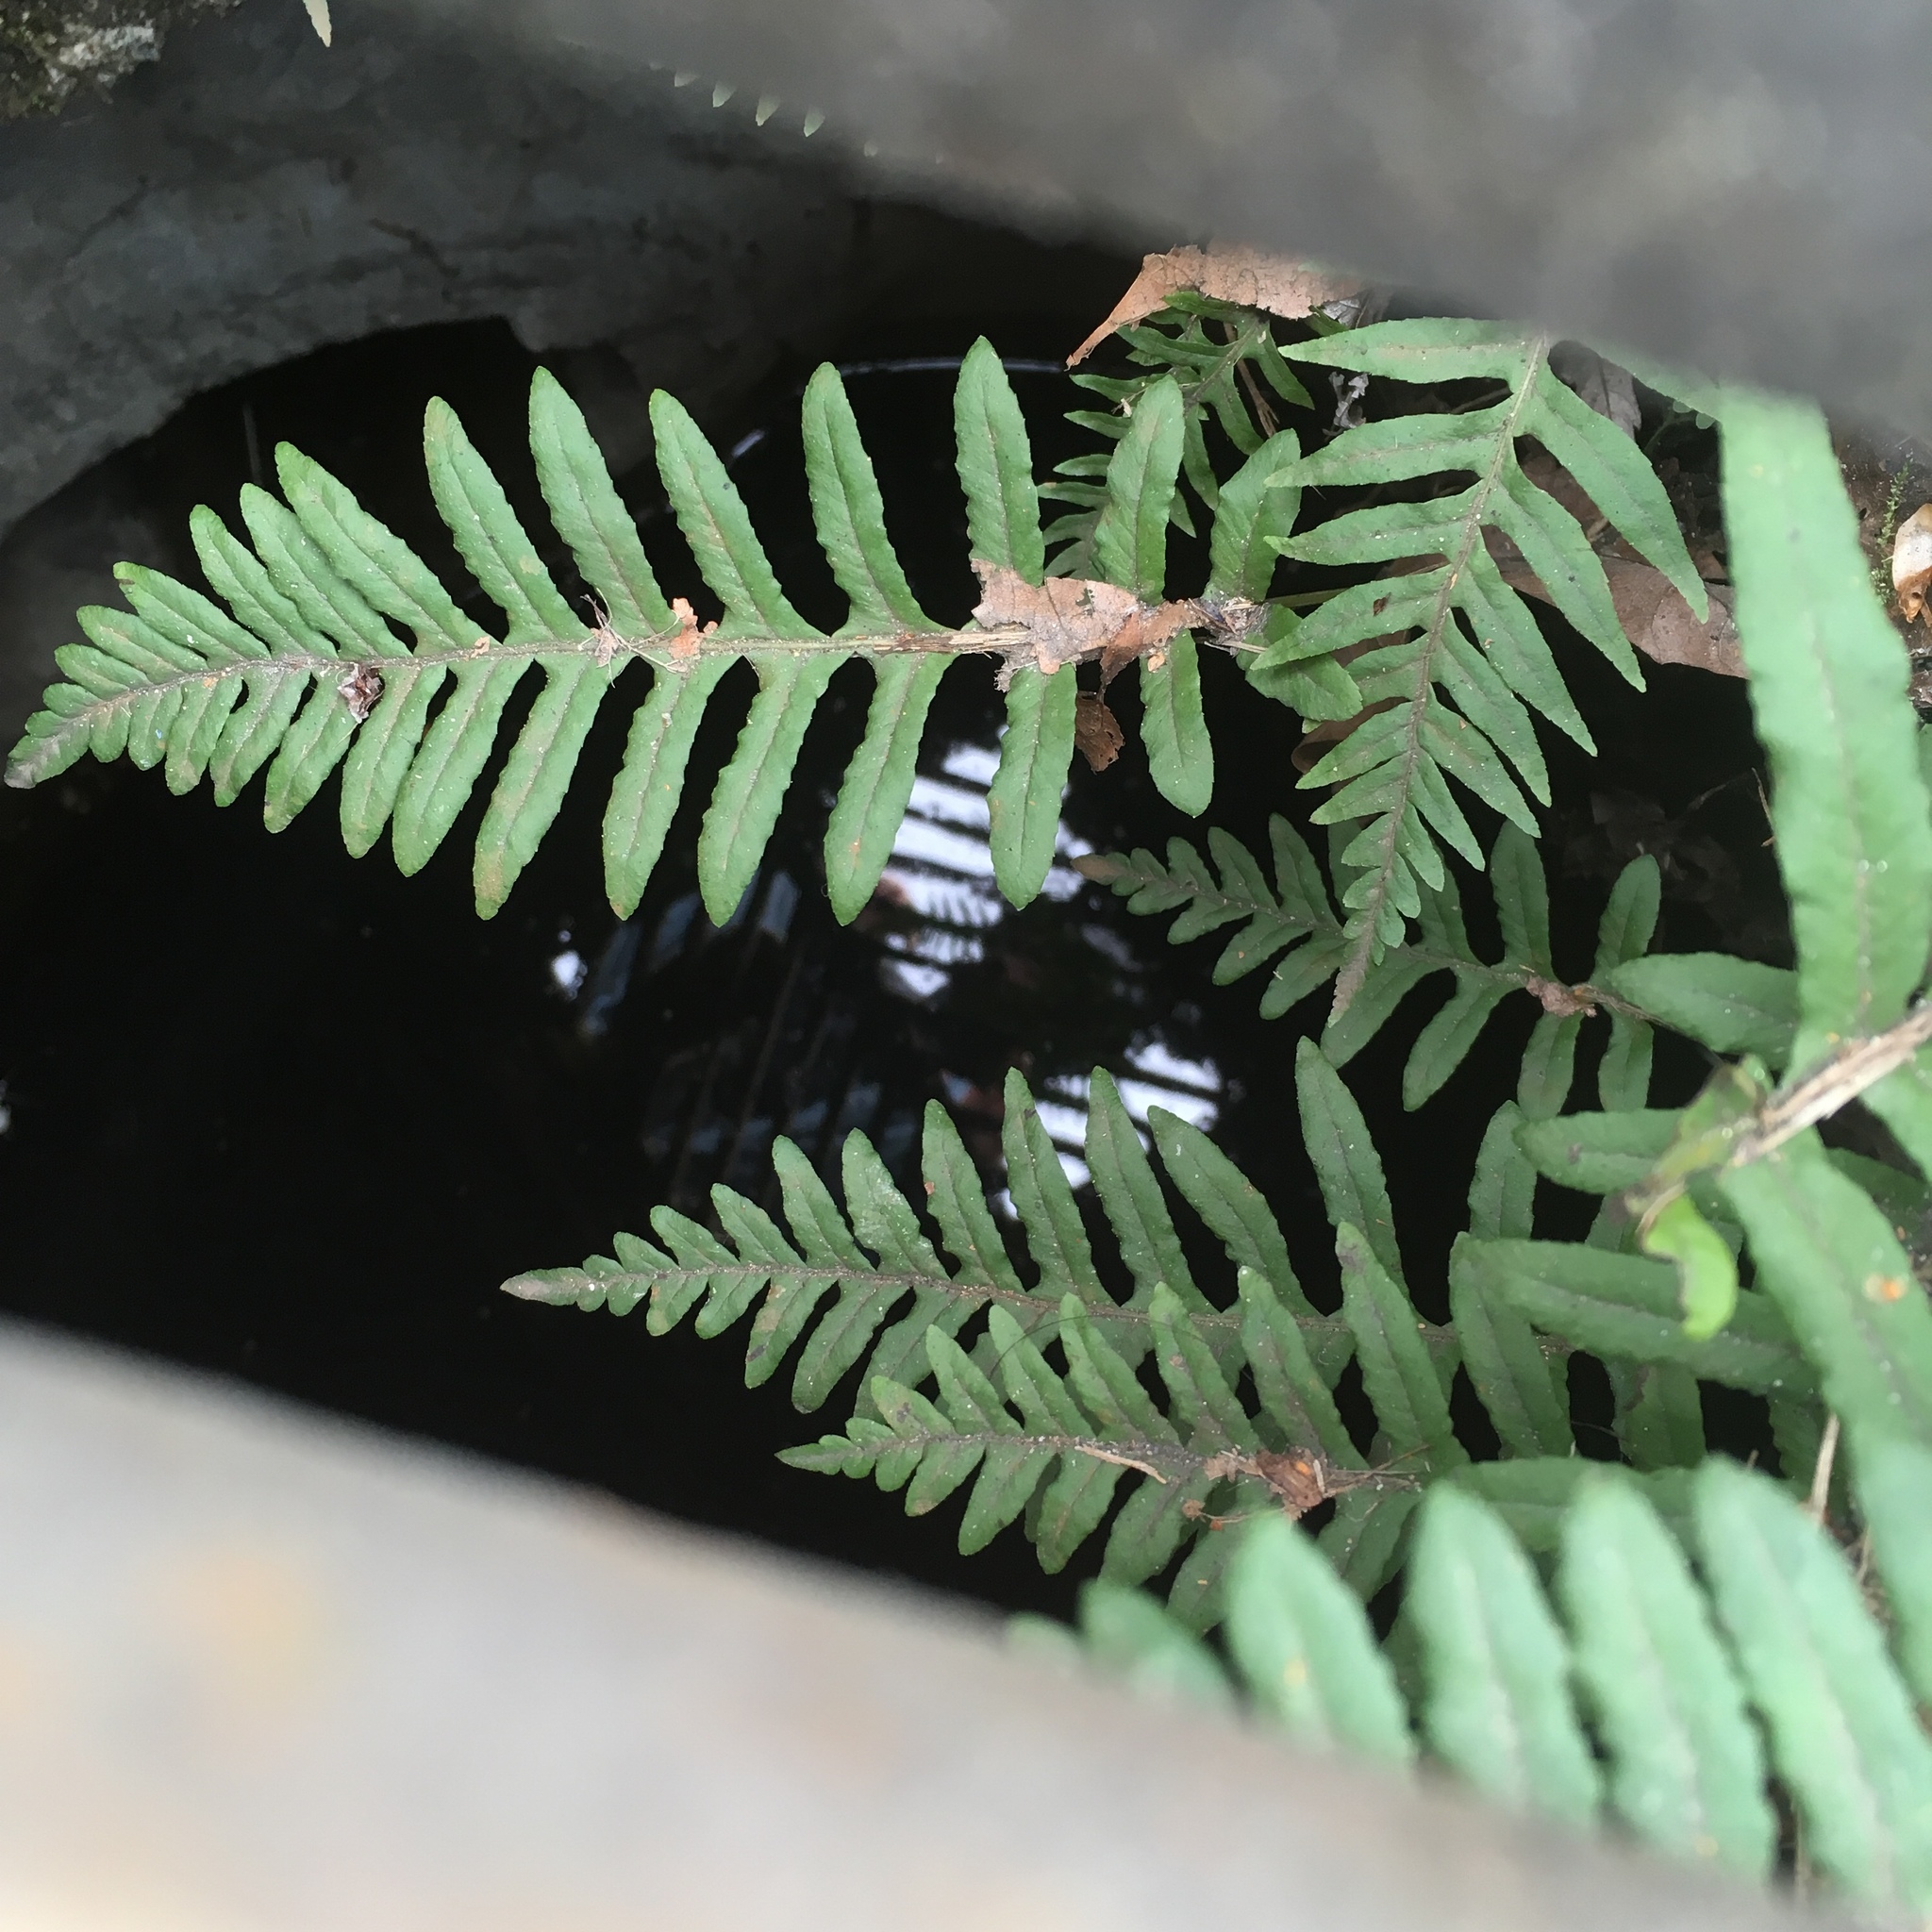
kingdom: Plantae
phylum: Tracheophyta
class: Polypodiopsida
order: Polypodiales
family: Polypodiaceae
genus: Polypodium
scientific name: Polypodium glycyrrhiza
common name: Licorice fern
